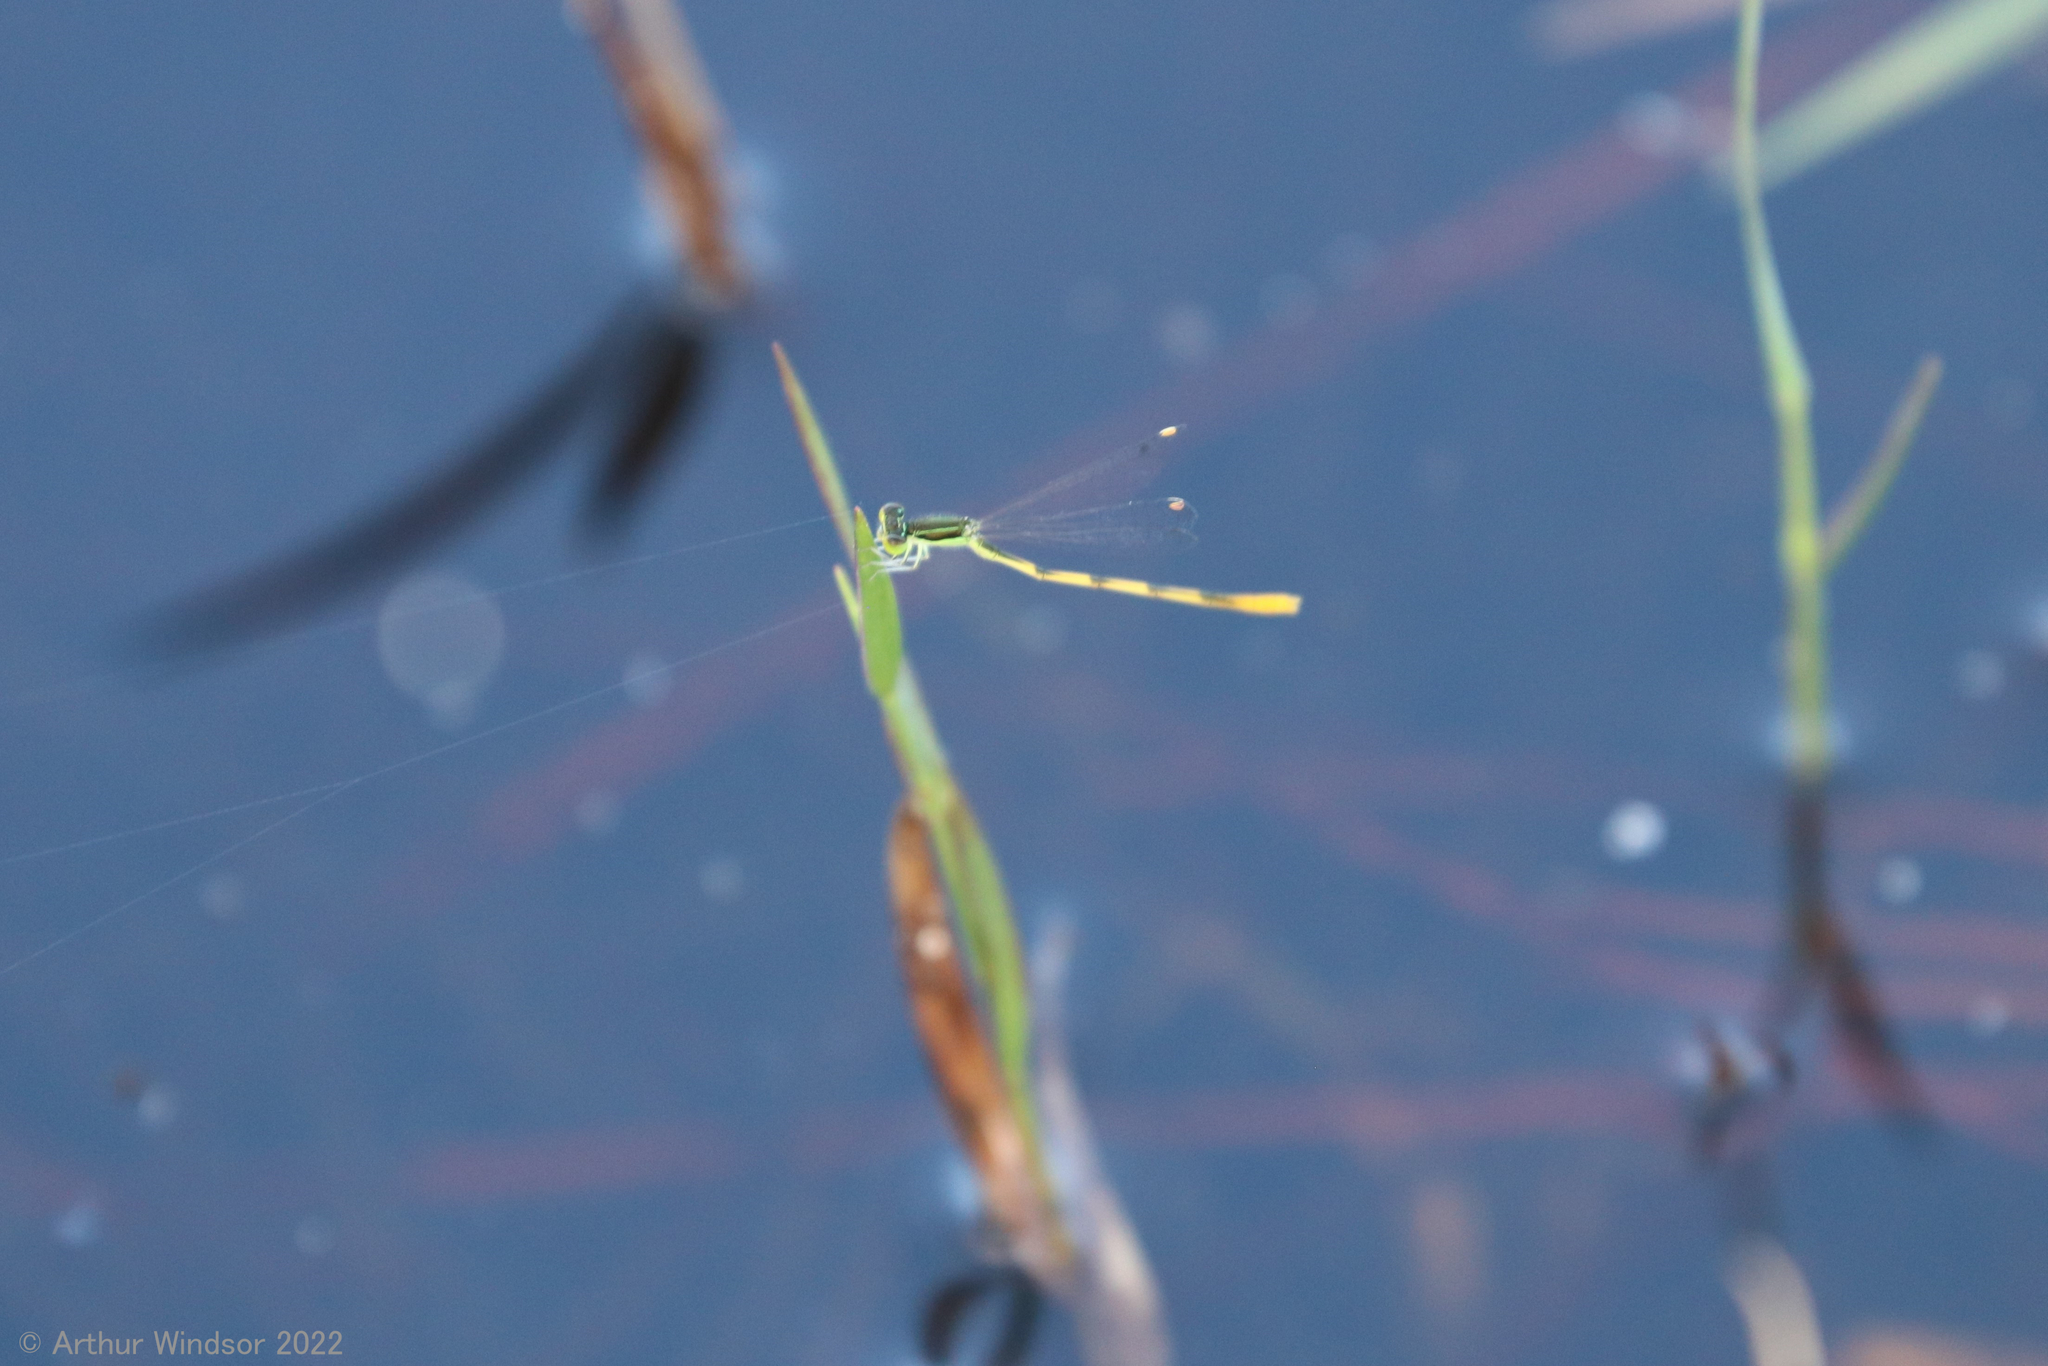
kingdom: Animalia
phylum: Arthropoda
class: Insecta
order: Odonata
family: Coenagrionidae
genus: Ischnura
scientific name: Ischnura hastata
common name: Citrine forktail
